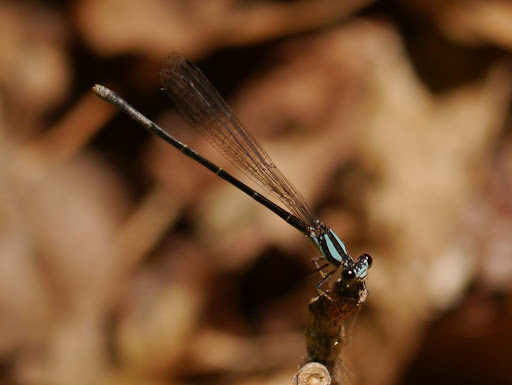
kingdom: Animalia
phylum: Arthropoda
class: Insecta
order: Odonata
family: Coenagrionidae
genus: Argia
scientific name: Argia tibialis
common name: Blue-tipped dancer
